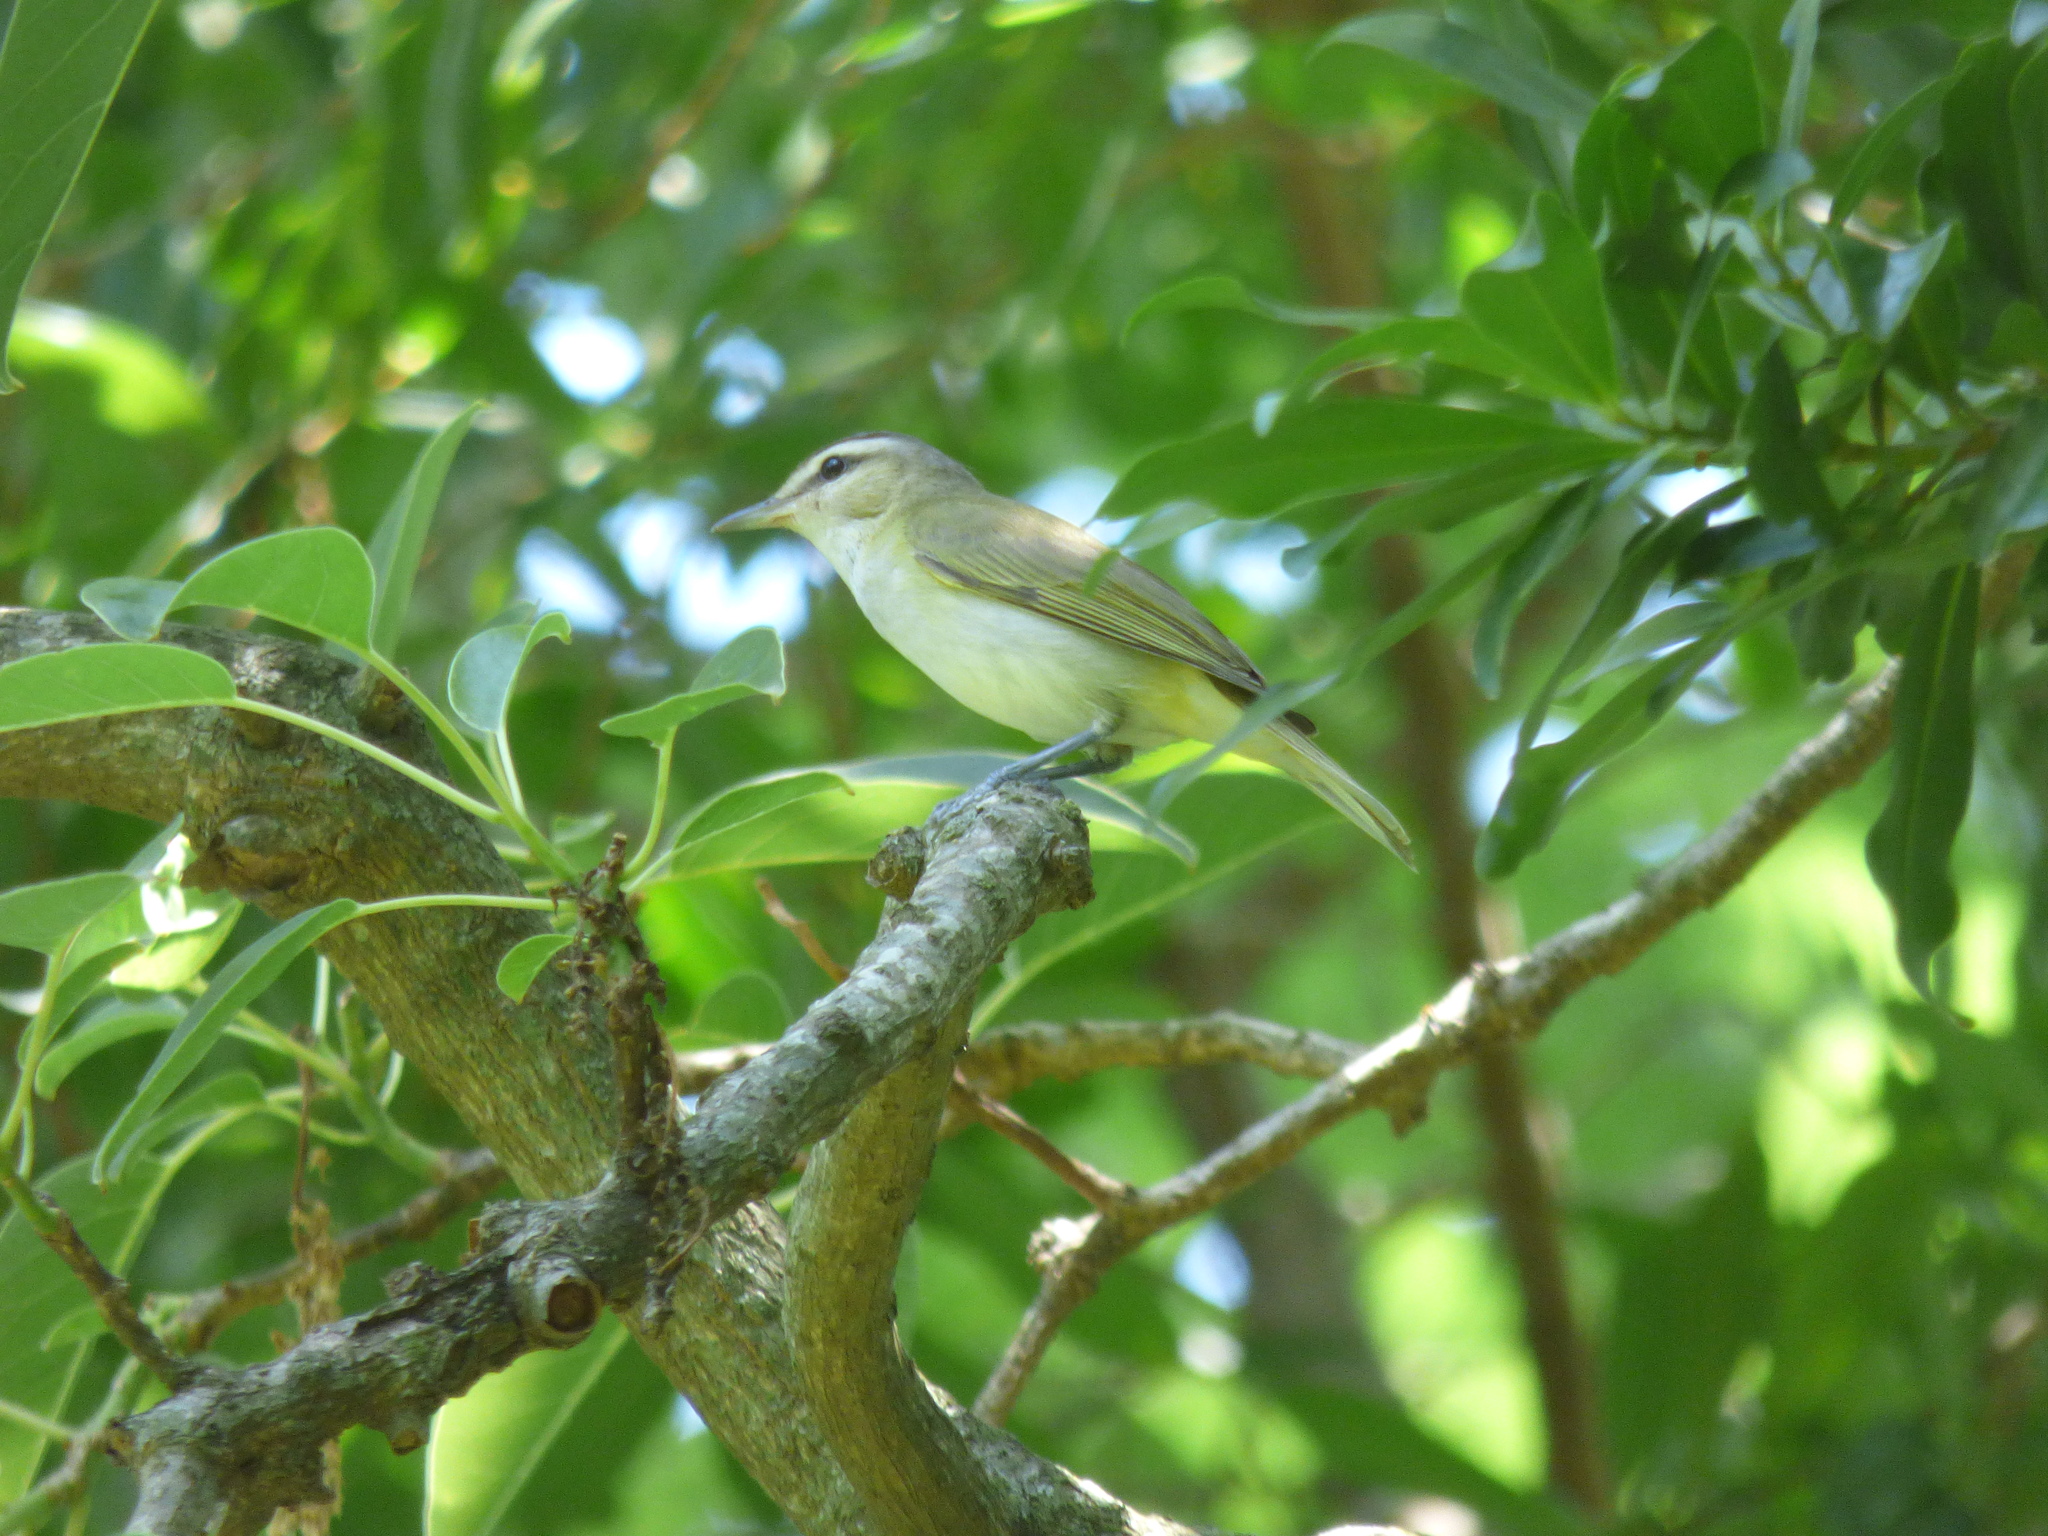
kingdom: Animalia
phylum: Chordata
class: Aves
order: Passeriformes
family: Vireonidae
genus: Vireo
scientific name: Vireo olivaceus
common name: Red-eyed vireo
